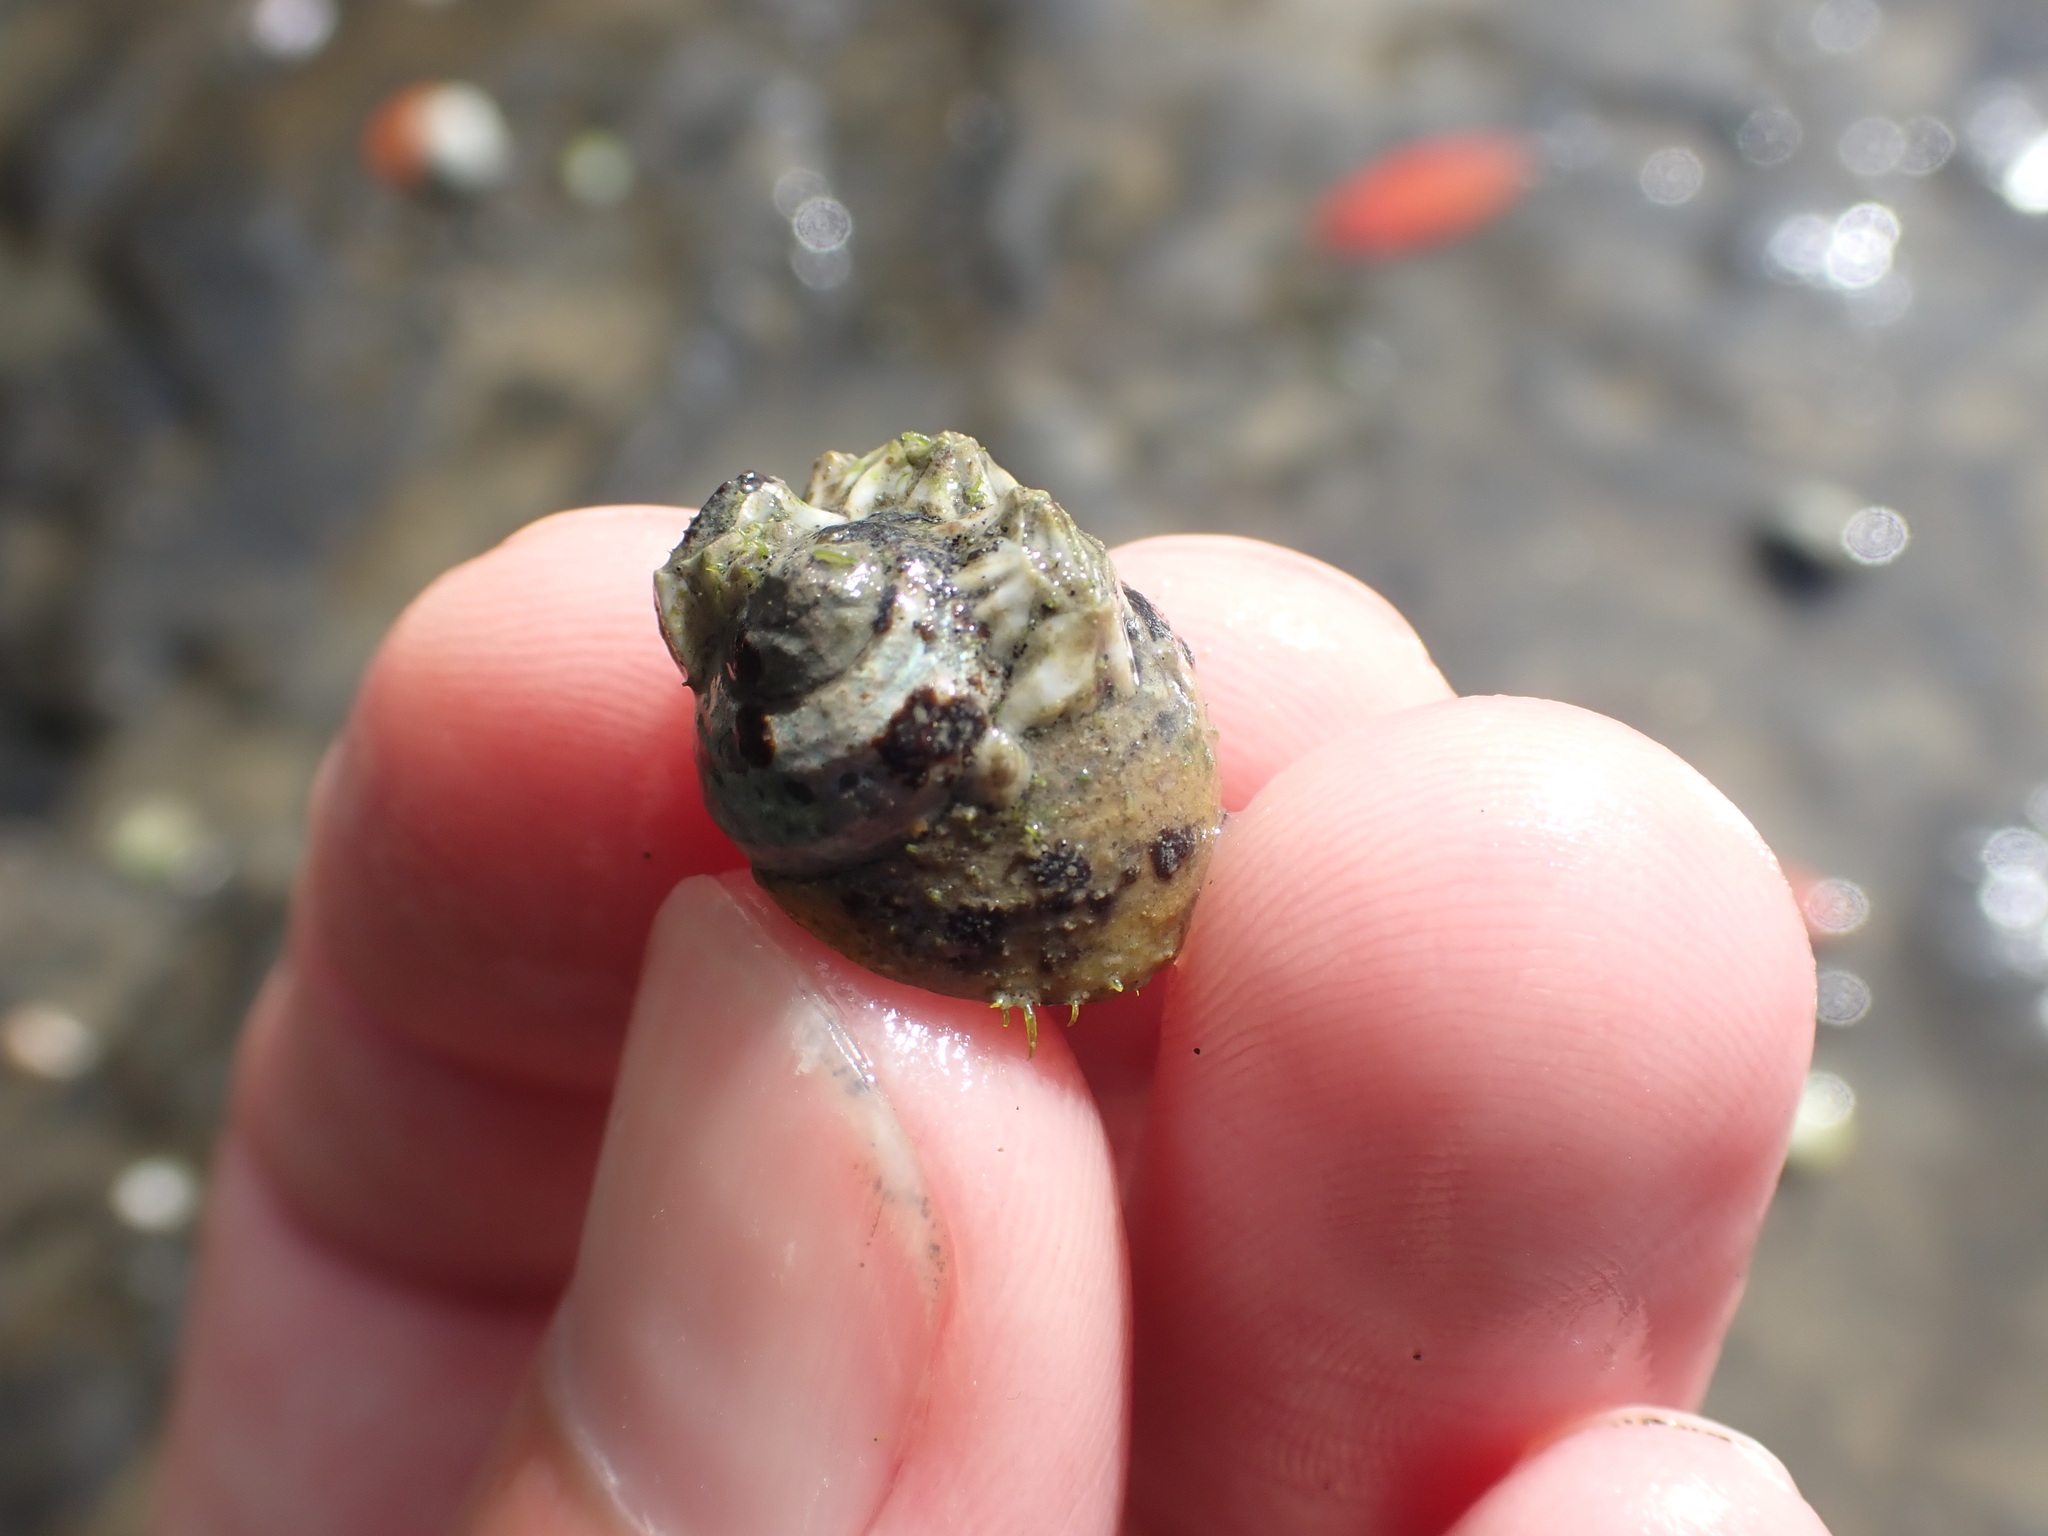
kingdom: Animalia
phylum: Mollusca
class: Gastropoda
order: Trochida
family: Trochidae
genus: Diloma
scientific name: Diloma subrostratum
